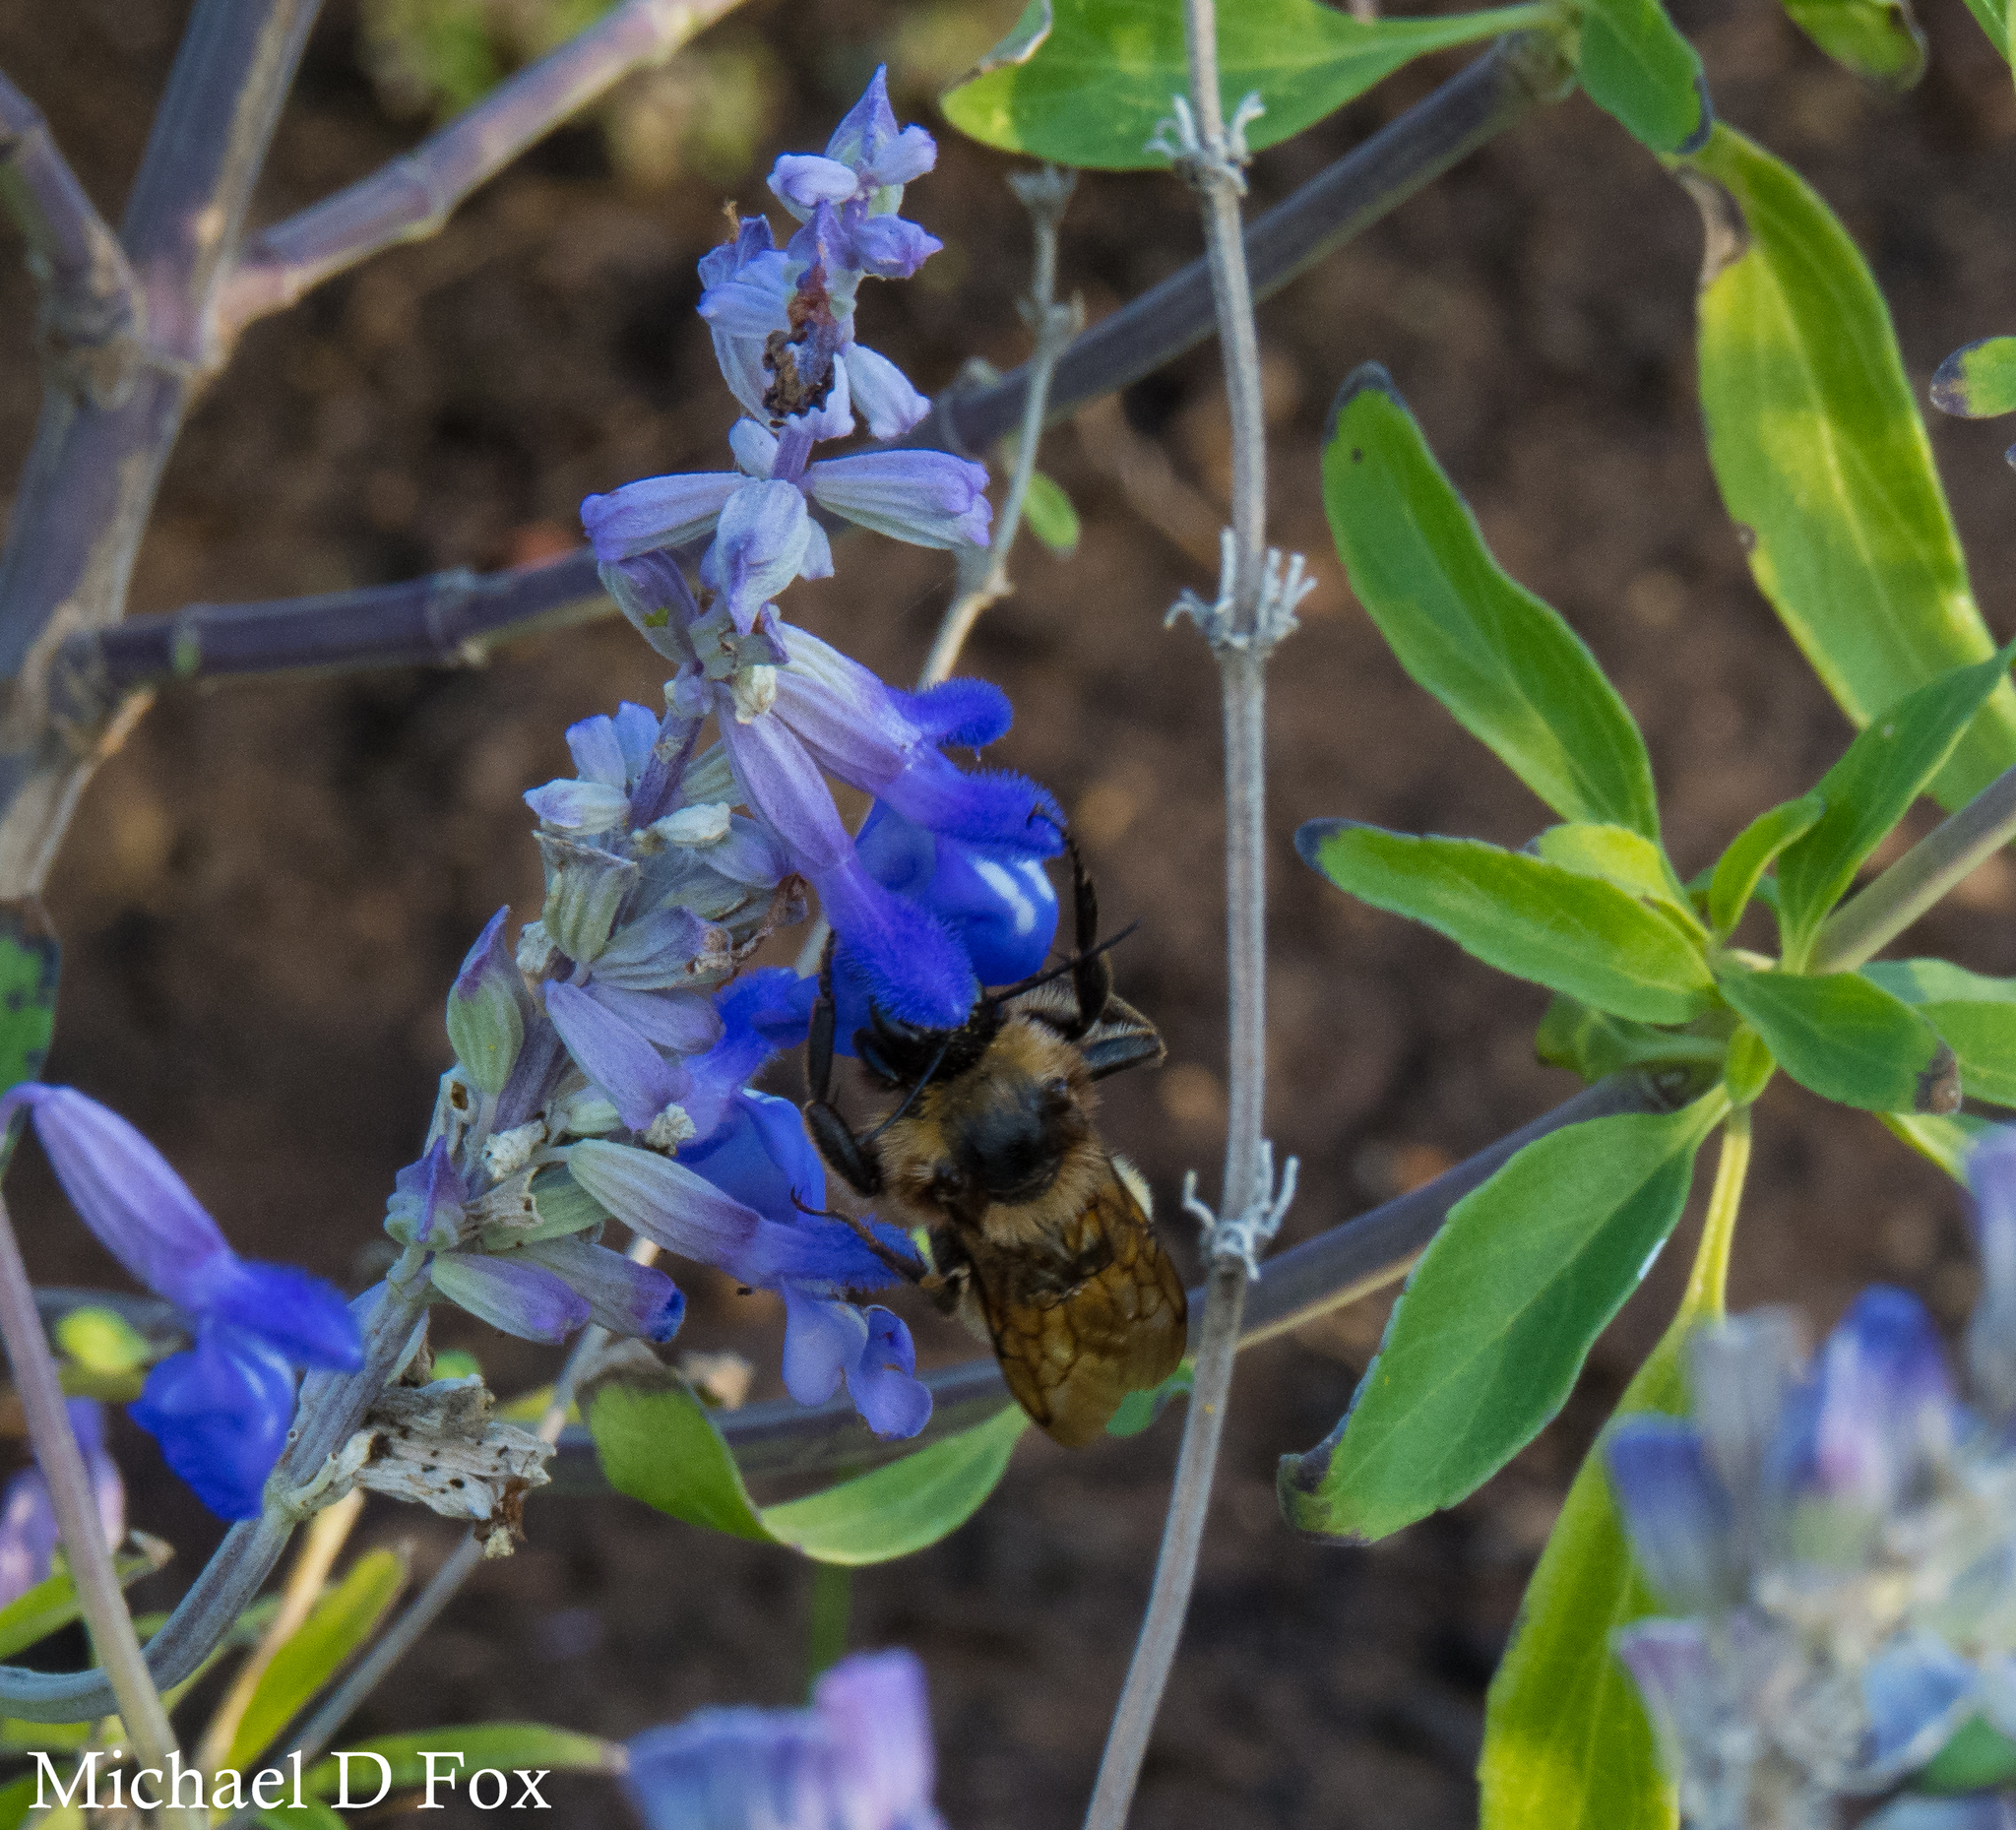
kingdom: Animalia
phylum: Arthropoda
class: Insecta
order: Hymenoptera
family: Apidae
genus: Bombus
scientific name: Bombus pensylvanicus
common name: Bumble bee
